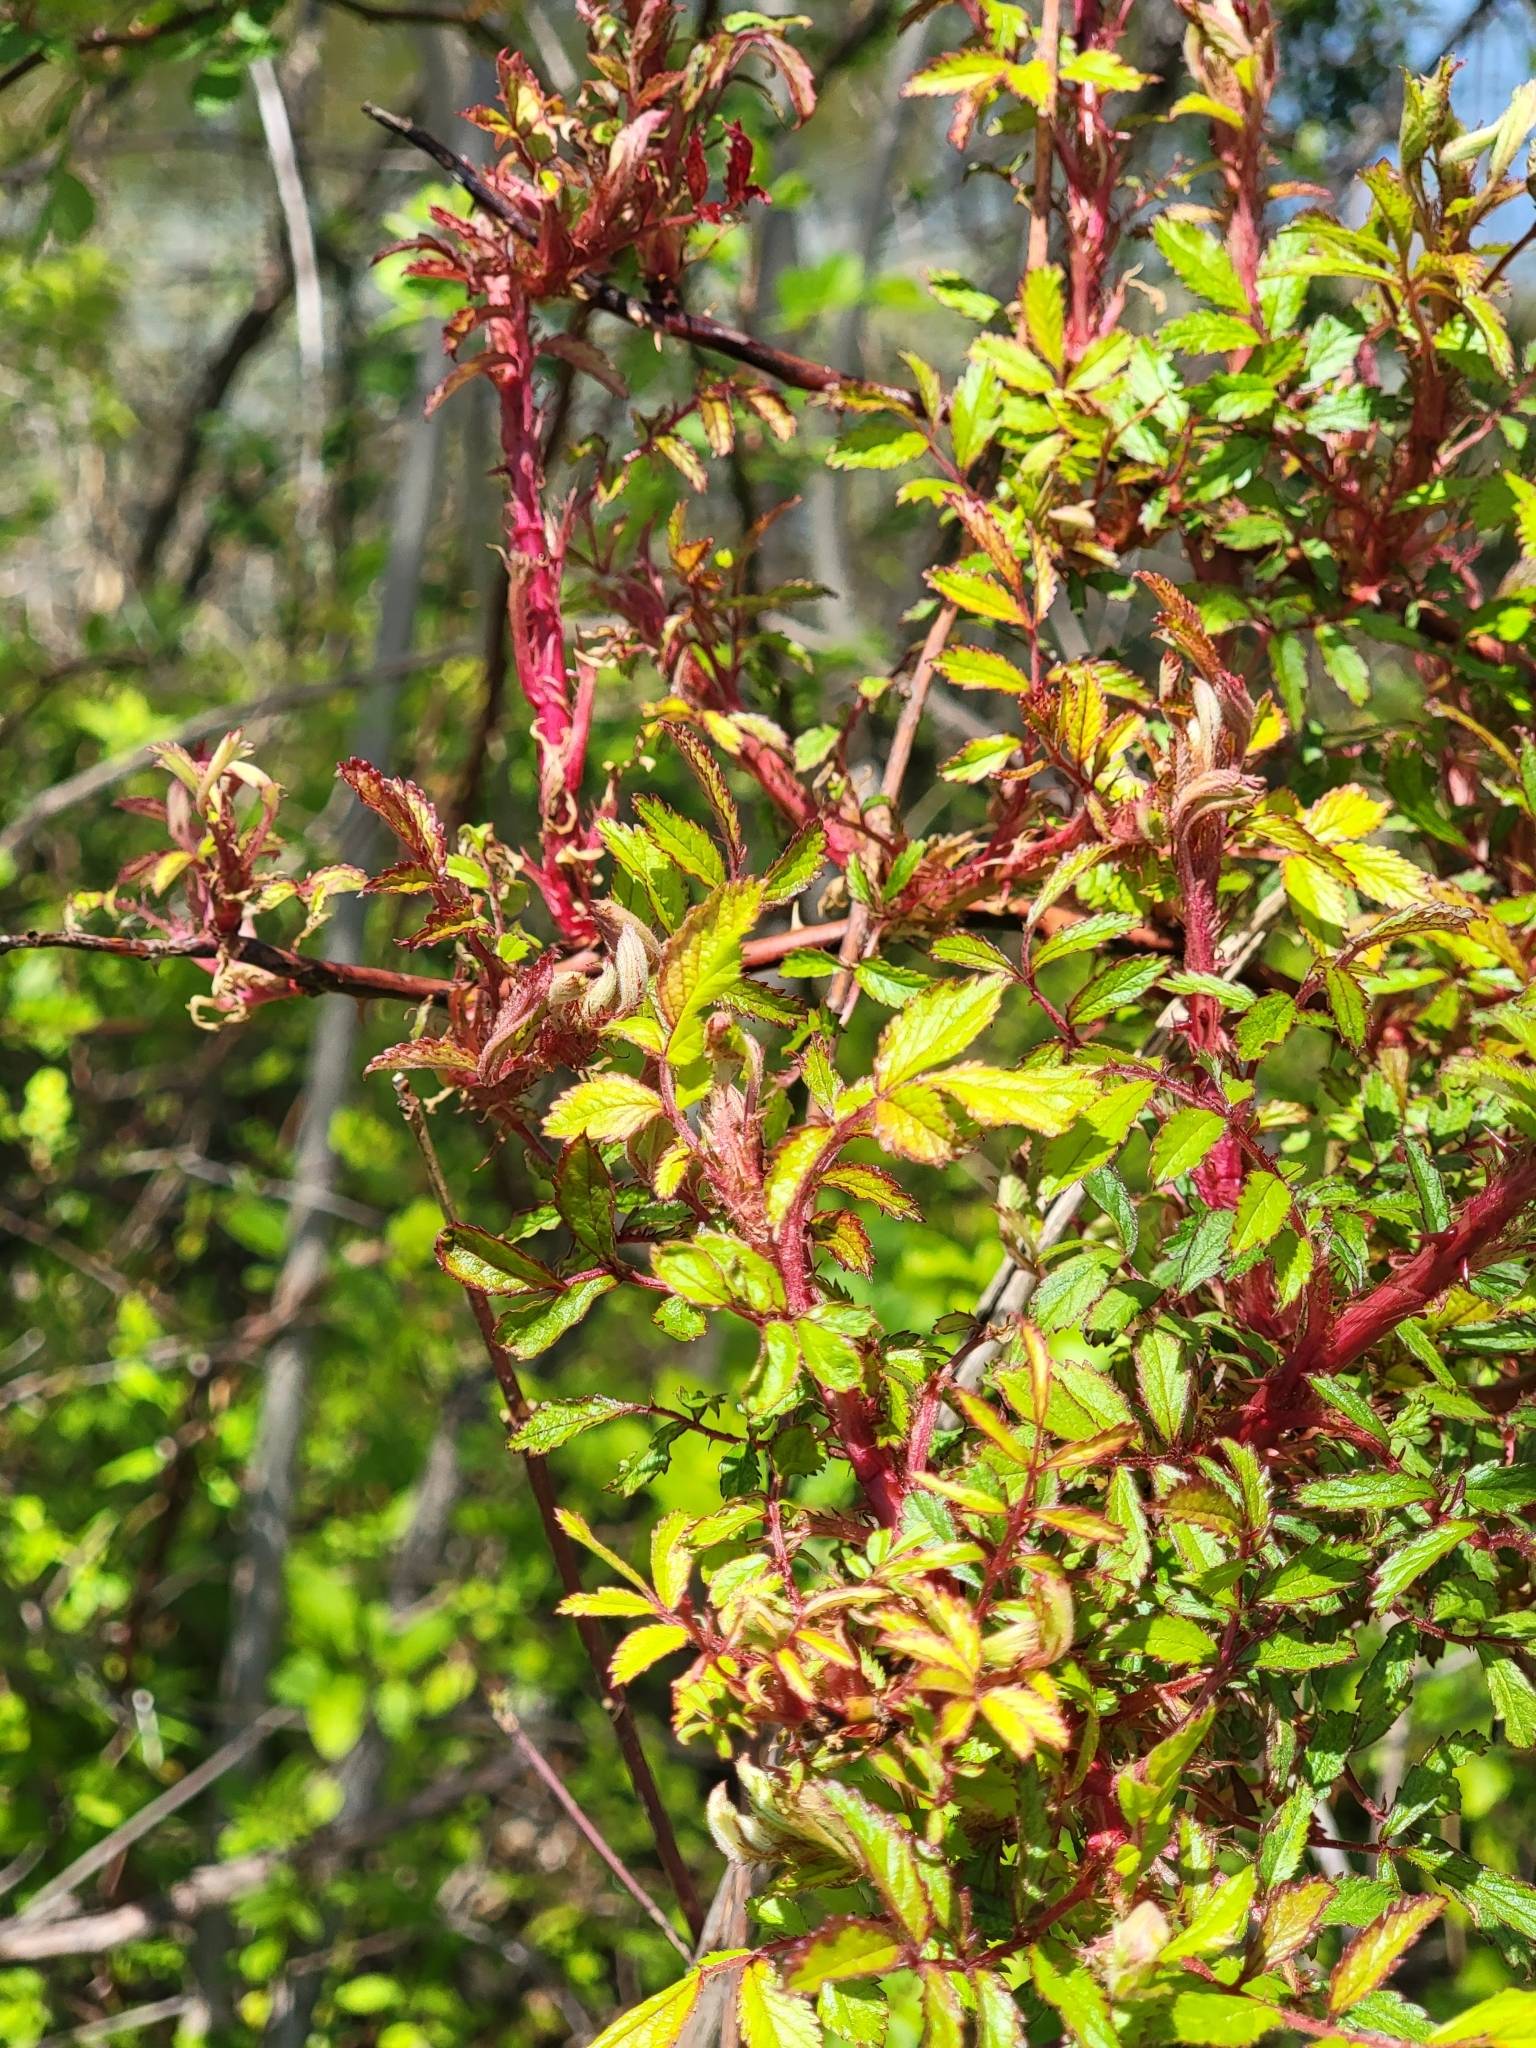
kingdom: Viruses
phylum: Negarnaviricota
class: Ellioviricetes
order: Bunyavirales
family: Fimoviridae
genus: Emaravirus
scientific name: Emaravirus rosae
